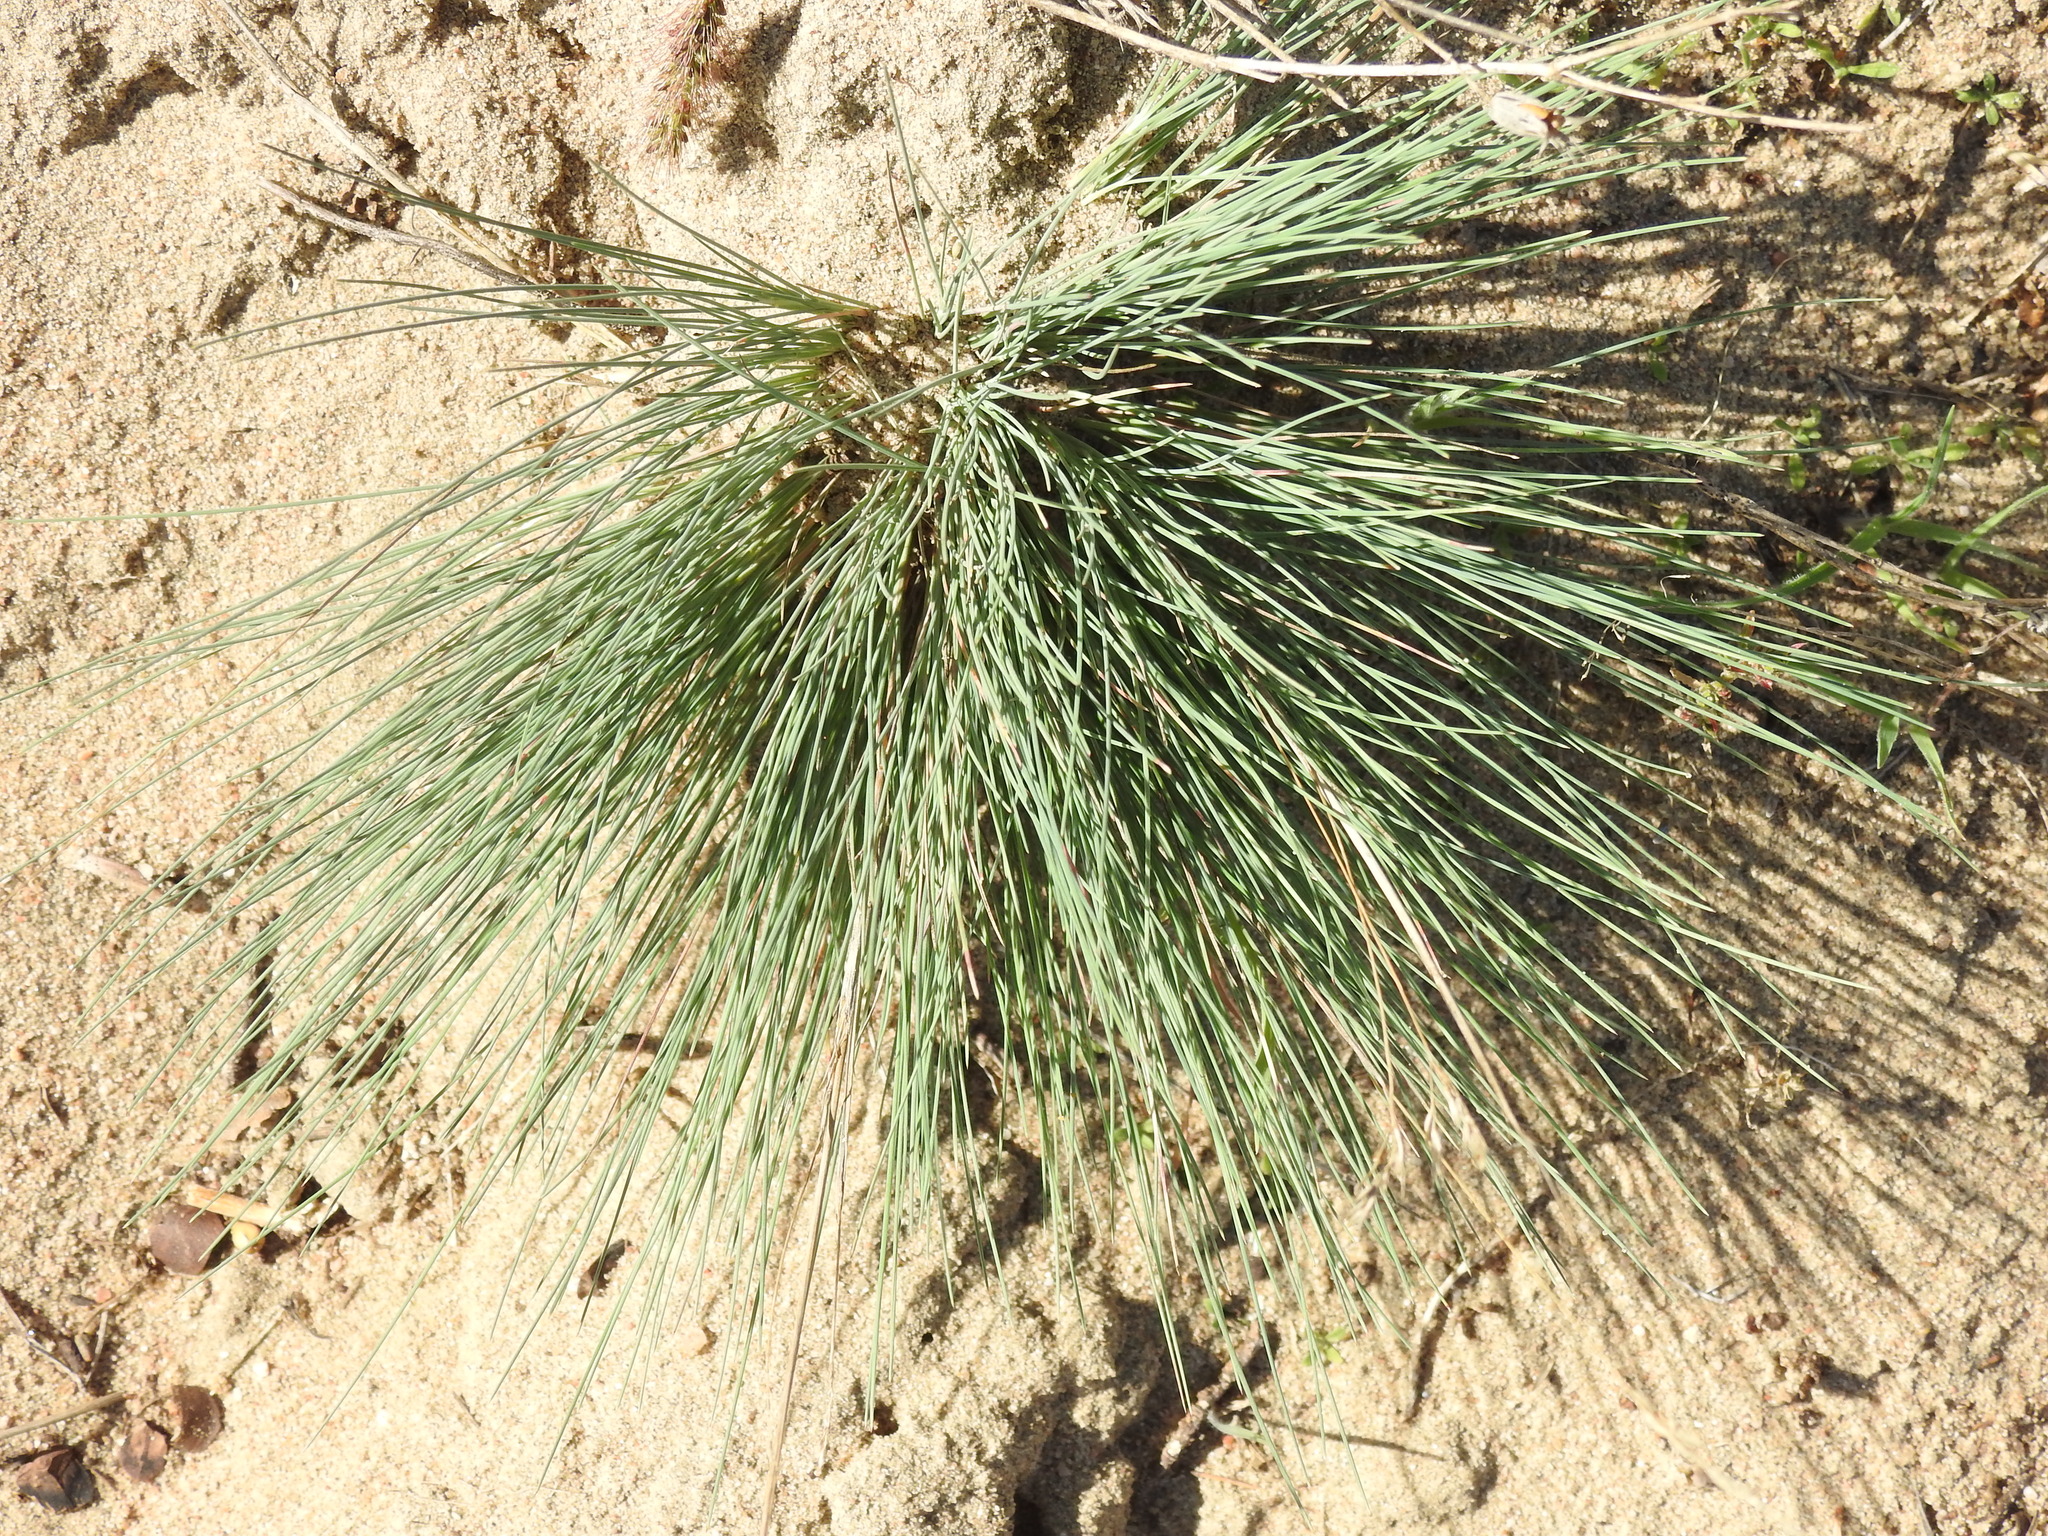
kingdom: Plantae
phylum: Tracheophyta
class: Liliopsida
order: Poales
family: Poaceae
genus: Corynephorus
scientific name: Corynephorus canescens
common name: Grey hair-grass
